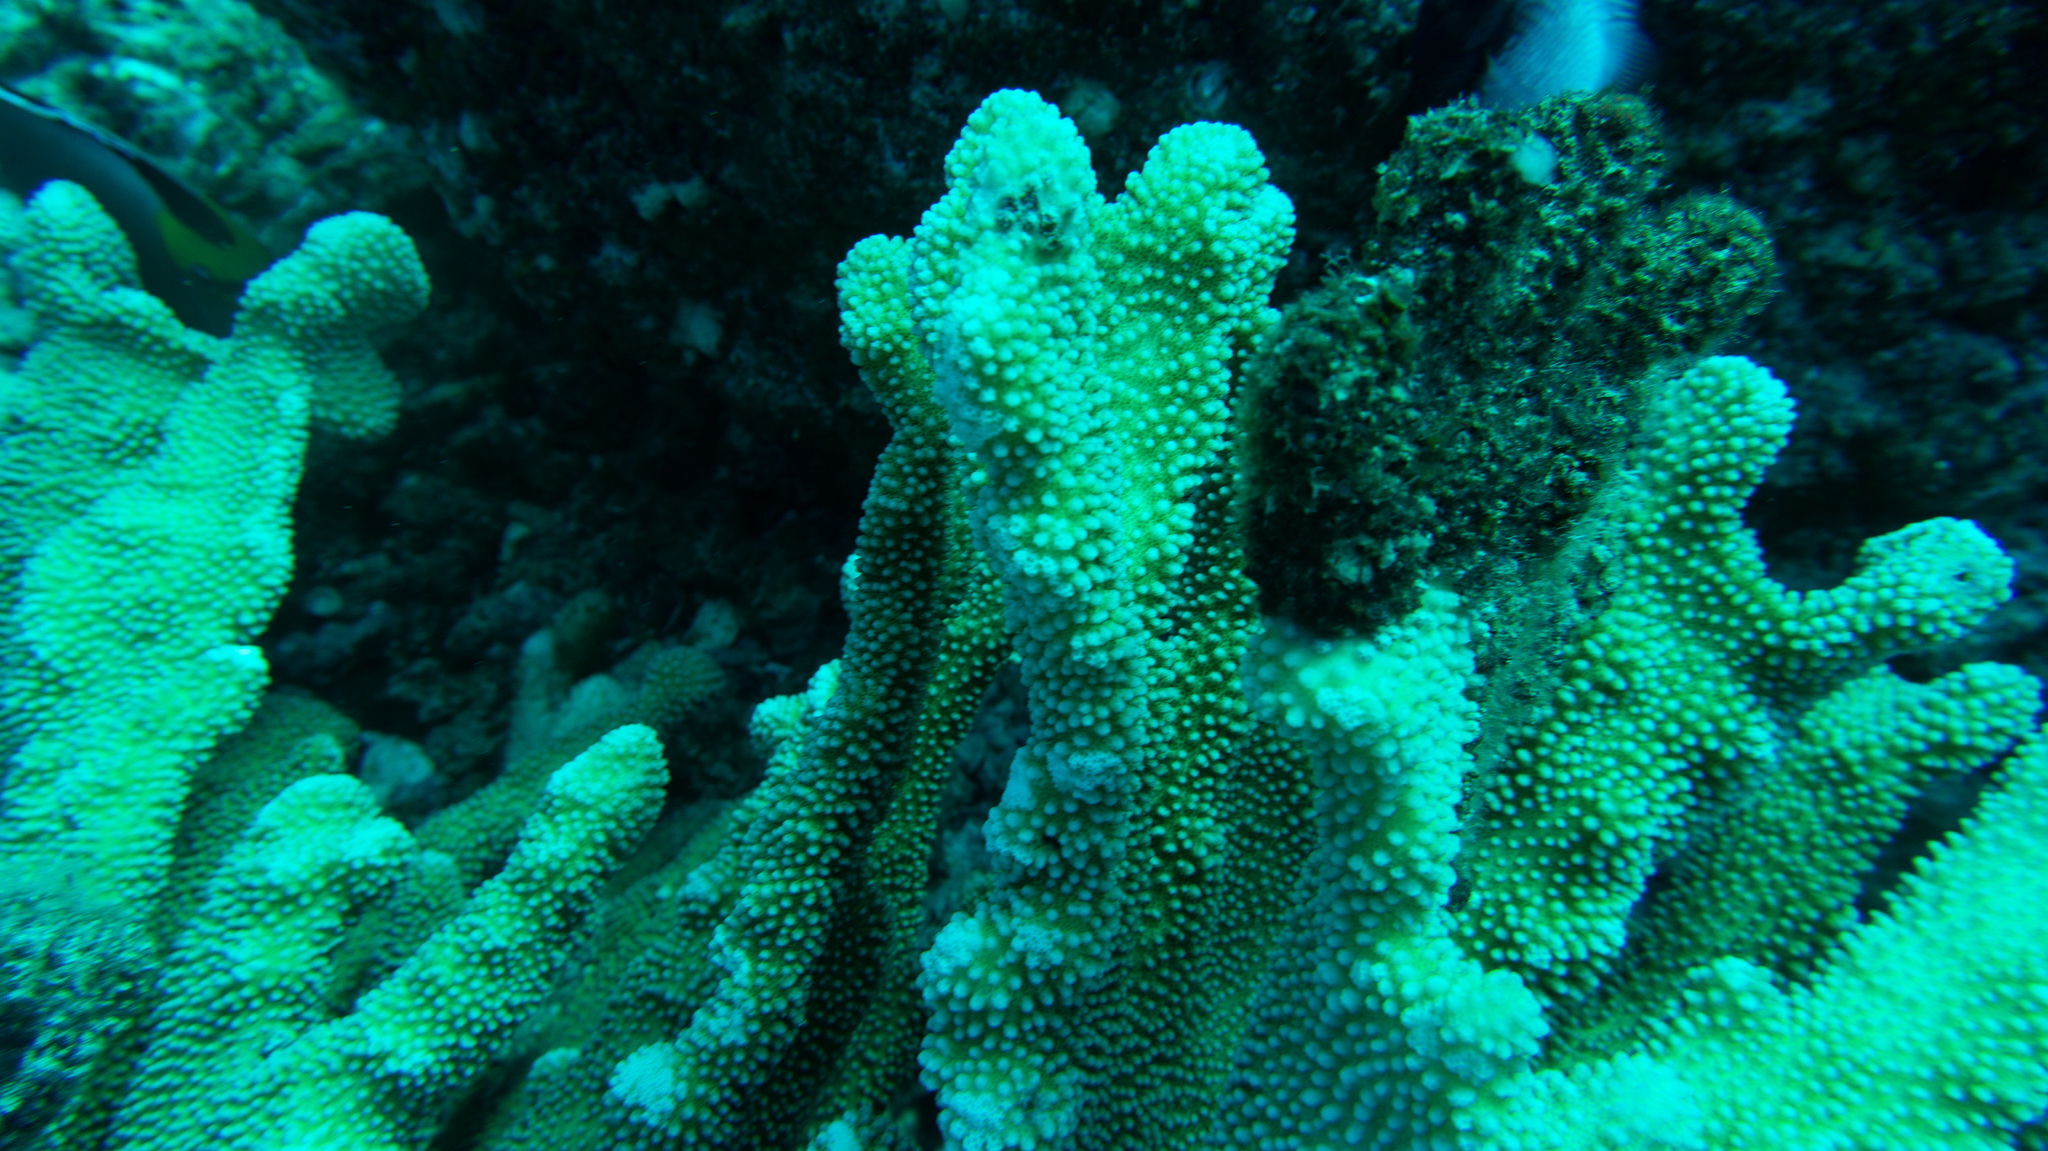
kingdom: Animalia
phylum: Cnidaria
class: Anthozoa
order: Scleractinia
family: Pocilloporidae
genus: Pocillopora
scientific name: Pocillopora grandis
